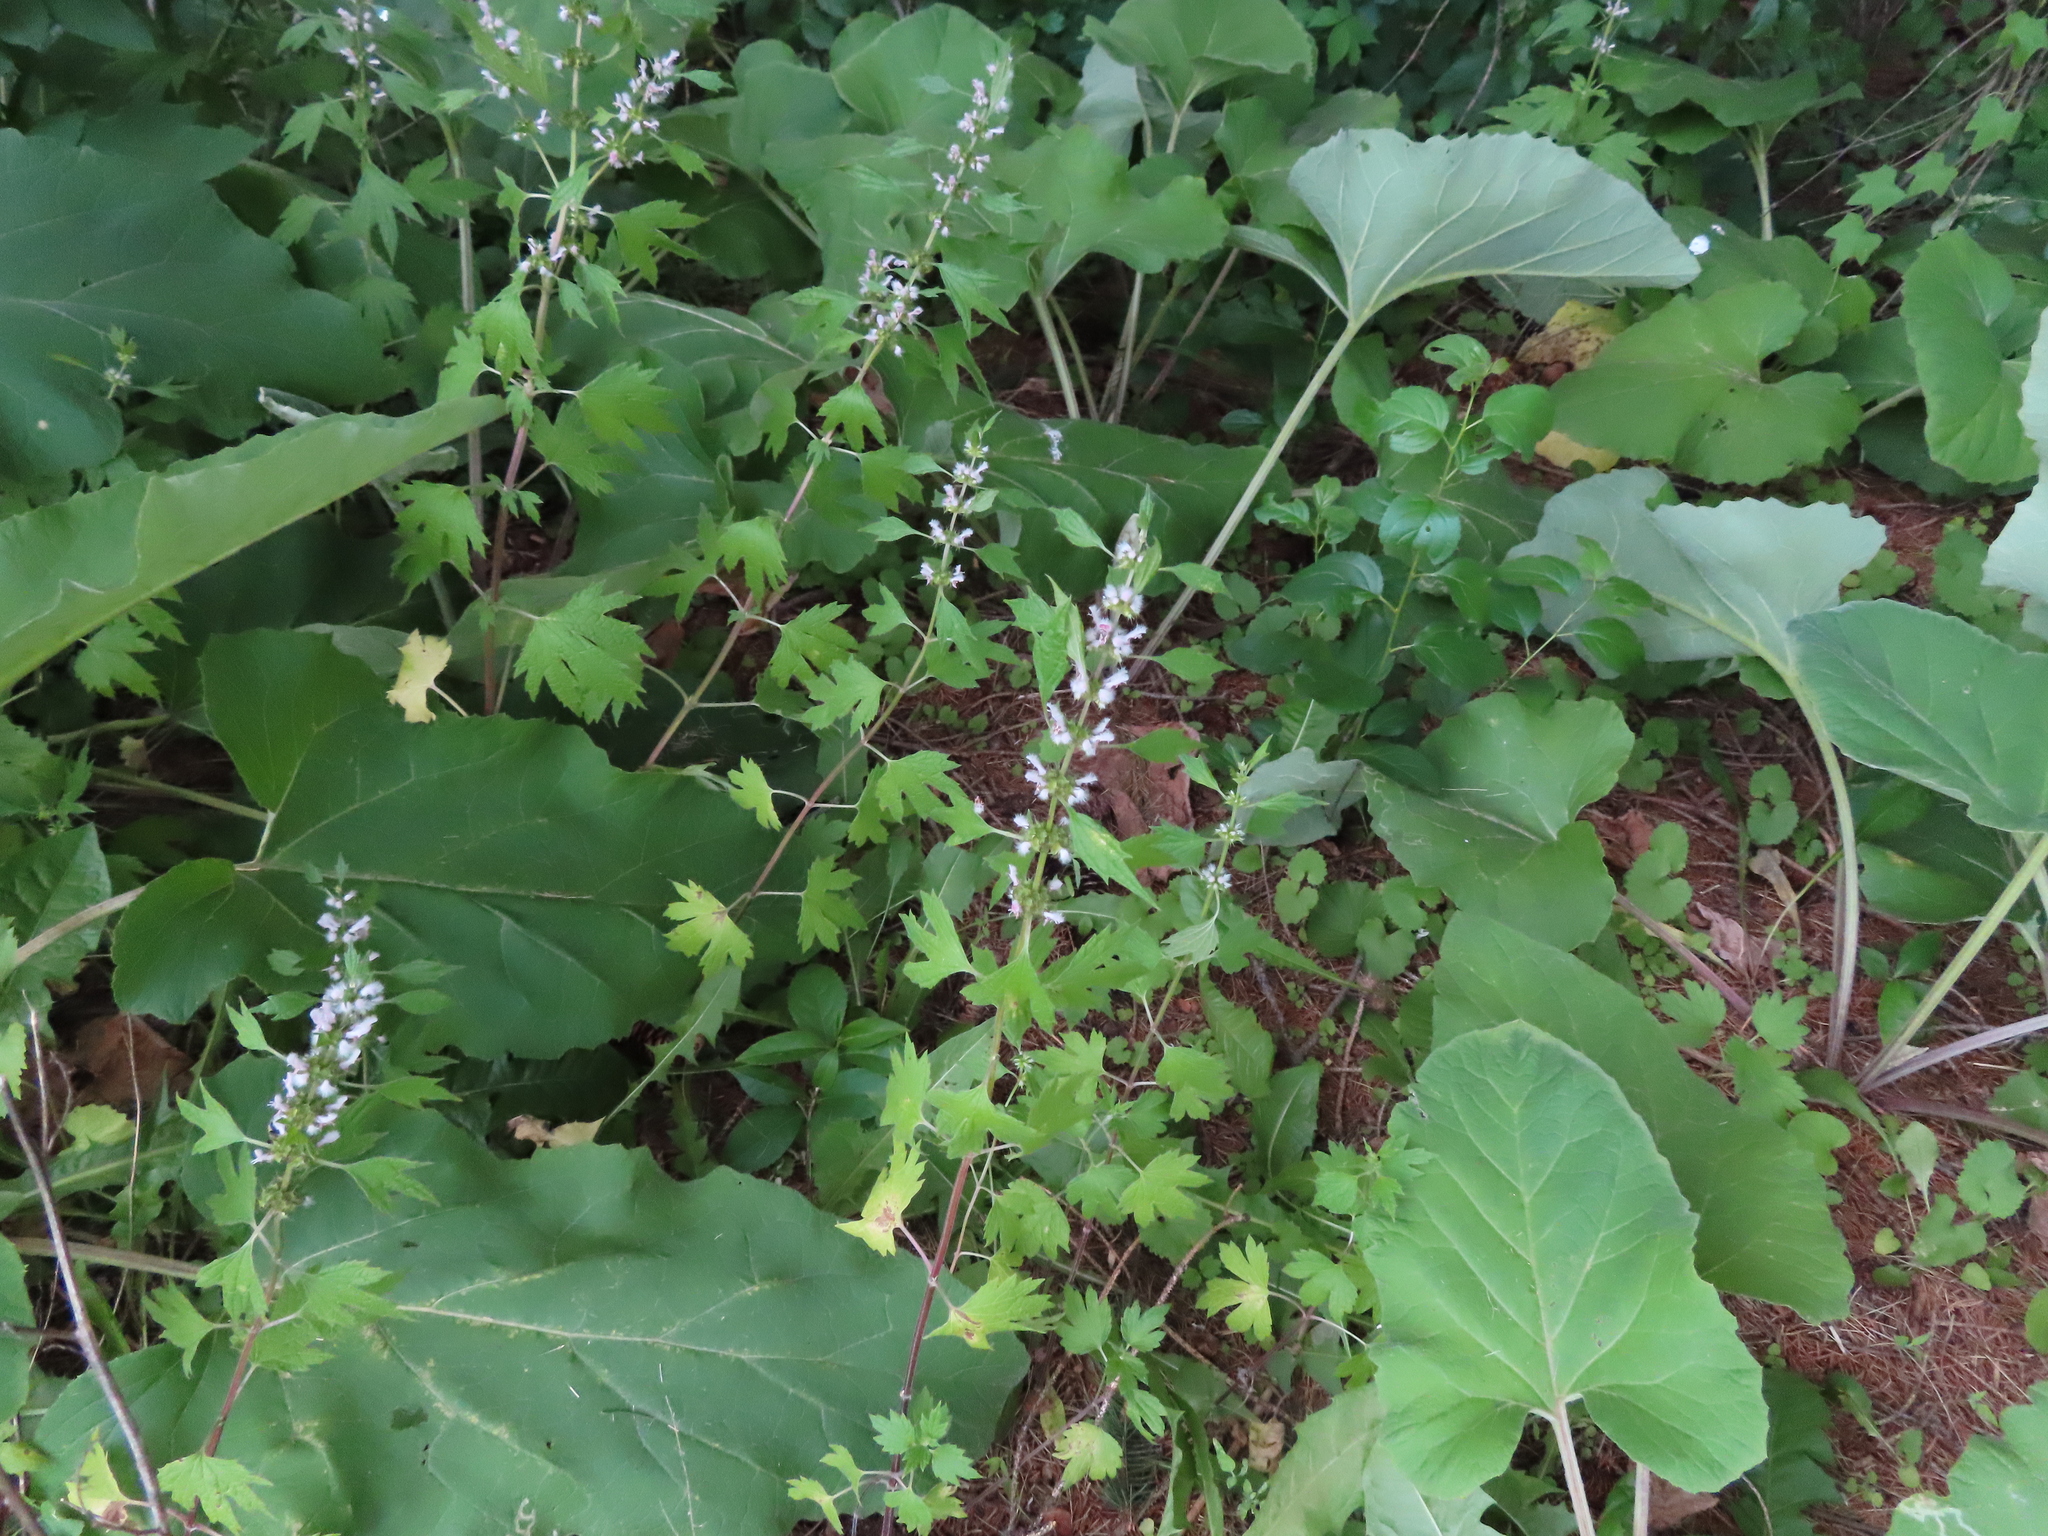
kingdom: Plantae
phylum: Tracheophyta
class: Magnoliopsida
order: Lamiales
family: Lamiaceae
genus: Leonurus
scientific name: Leonurus cardiaca
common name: Motherwort
